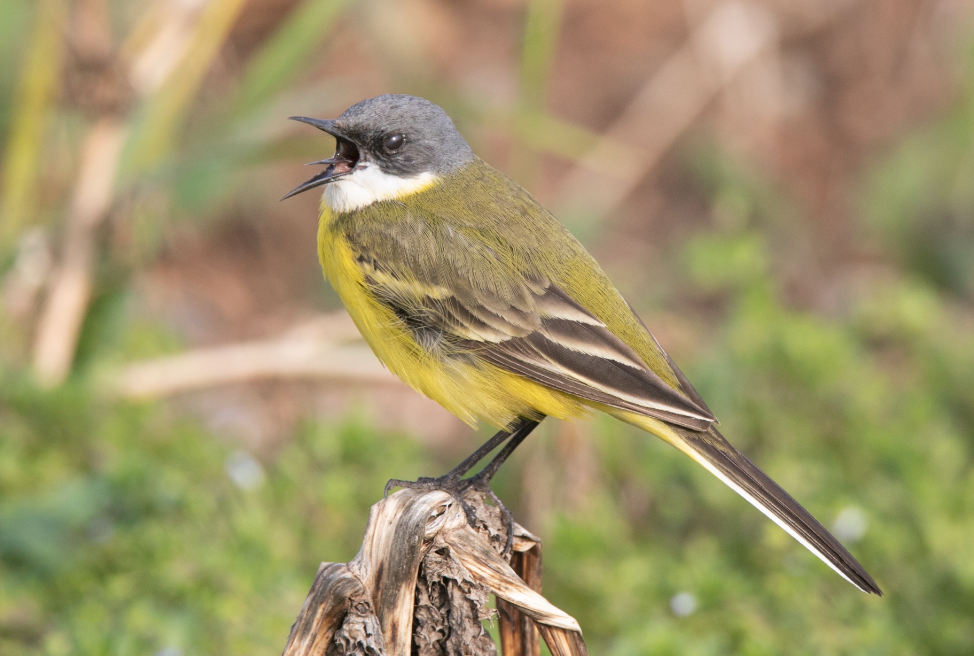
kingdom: Animalia
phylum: Chordata
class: Aves
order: Passeriformes
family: Motacillidae
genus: Motacilla
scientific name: Motacilla flava
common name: Western yellow wagtail
